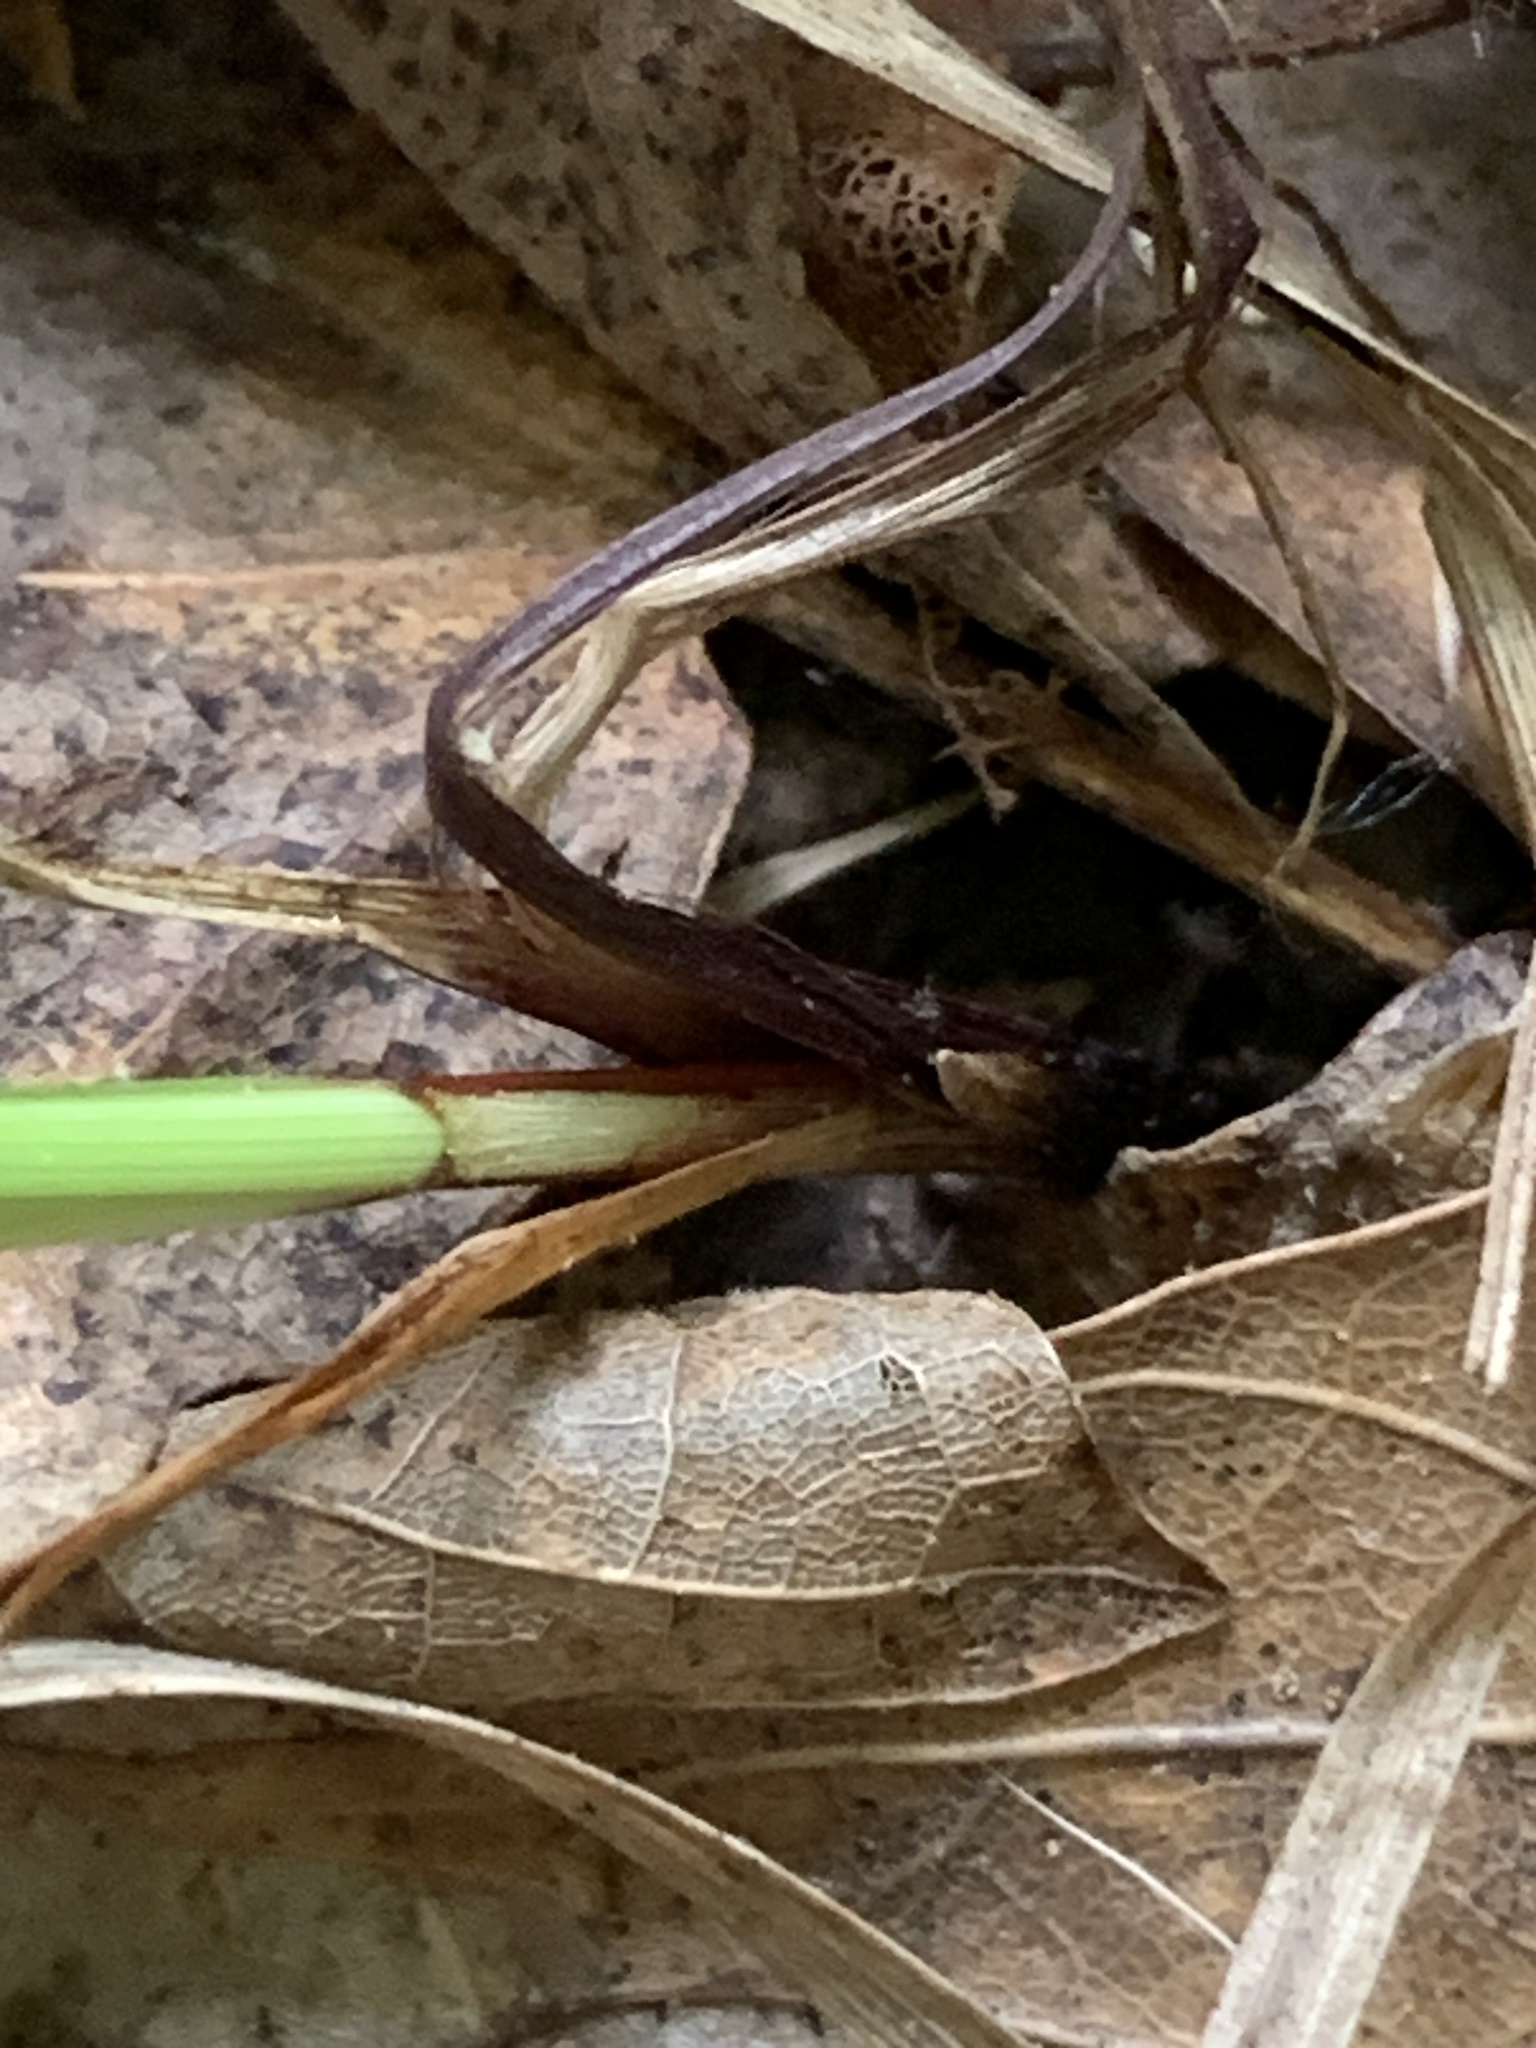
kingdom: Plantae
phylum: Tracheophyta
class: Liliopsida
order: Poales
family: Cyperaceae
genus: Carex
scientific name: Carex pensylvanica
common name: Common oak sedge
